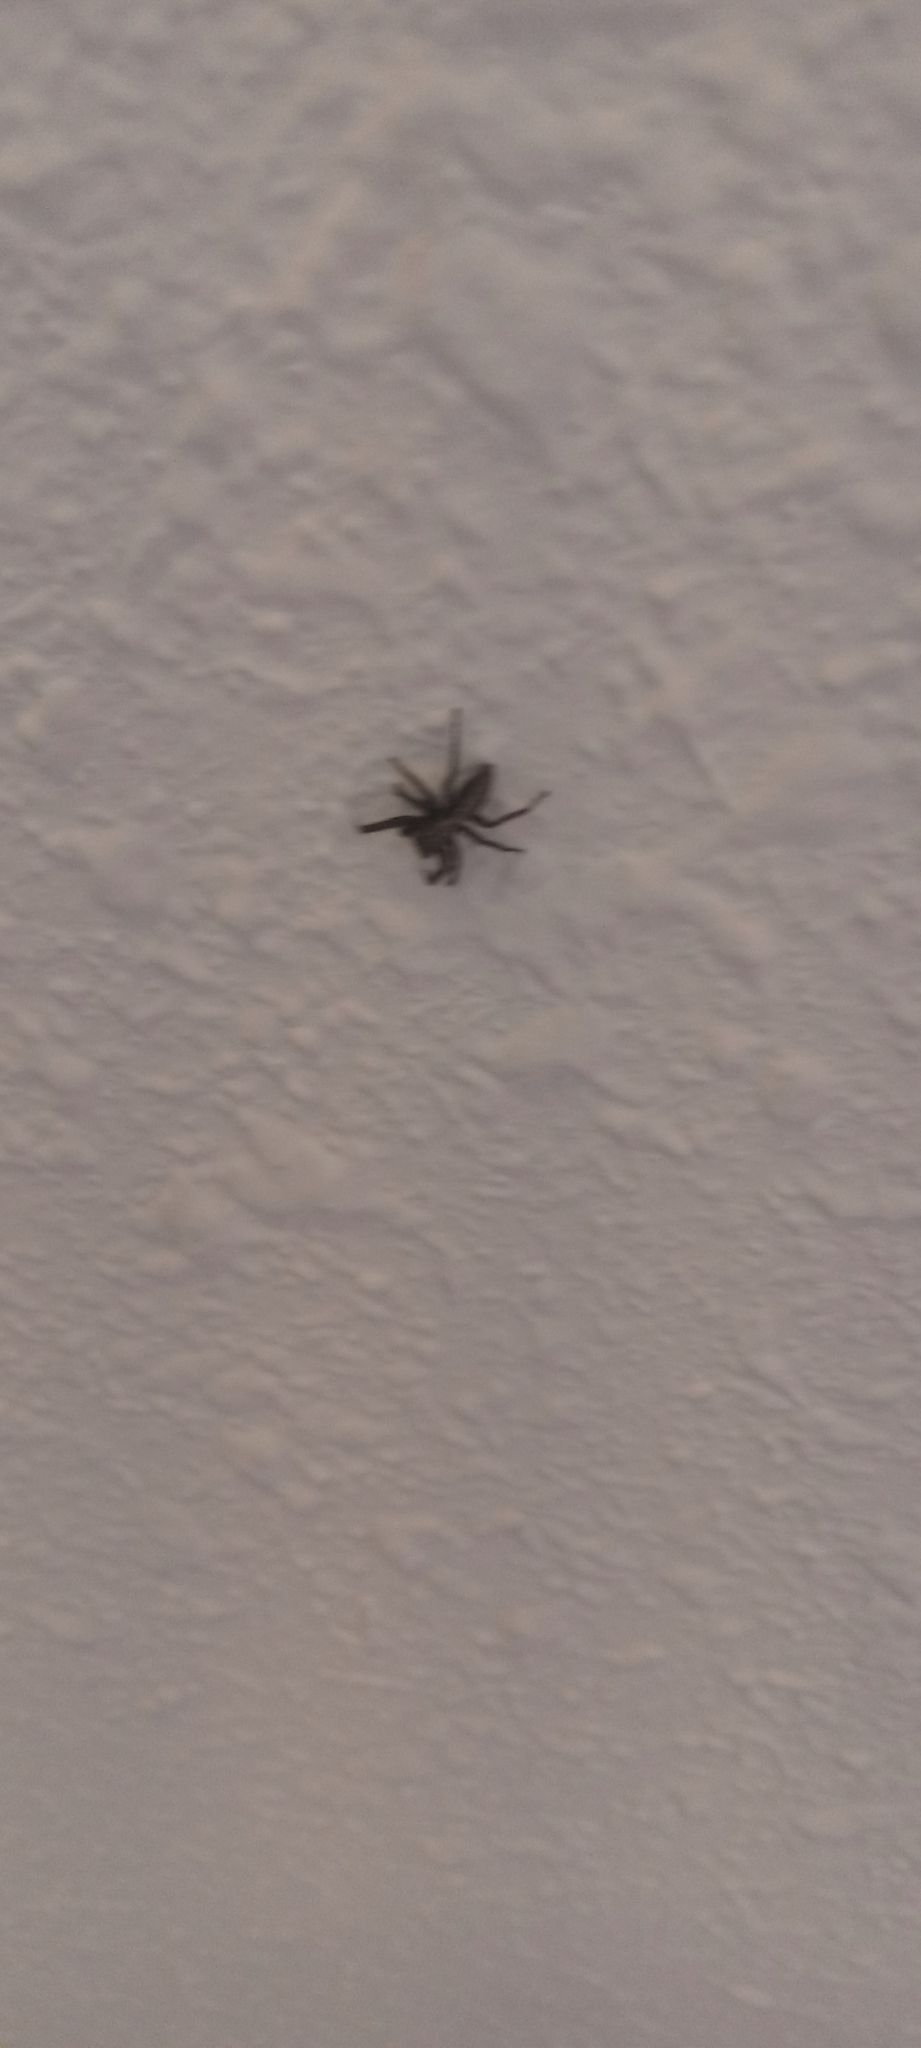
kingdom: Animalia
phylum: Arthropoda
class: Arachnida
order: Araneae
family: Salticidae
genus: Platycryptus
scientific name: Platycryptus californicus
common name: Jumping spiders
